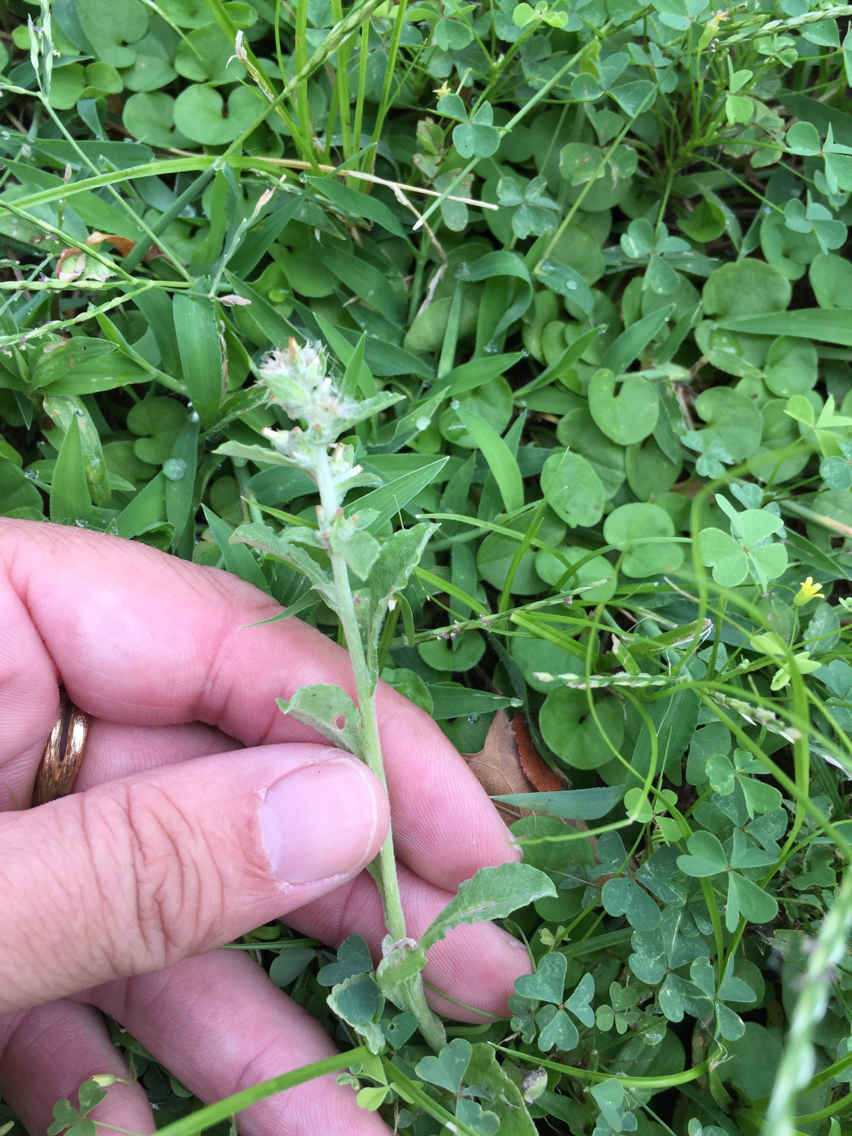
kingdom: Plantae
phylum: Tracheophyta
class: Magnoliopsida
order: Asterales
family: Asteraceae
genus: Gamochaeta
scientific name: Gamochaeta pensylvanica
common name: Pennsylvania everlasting
